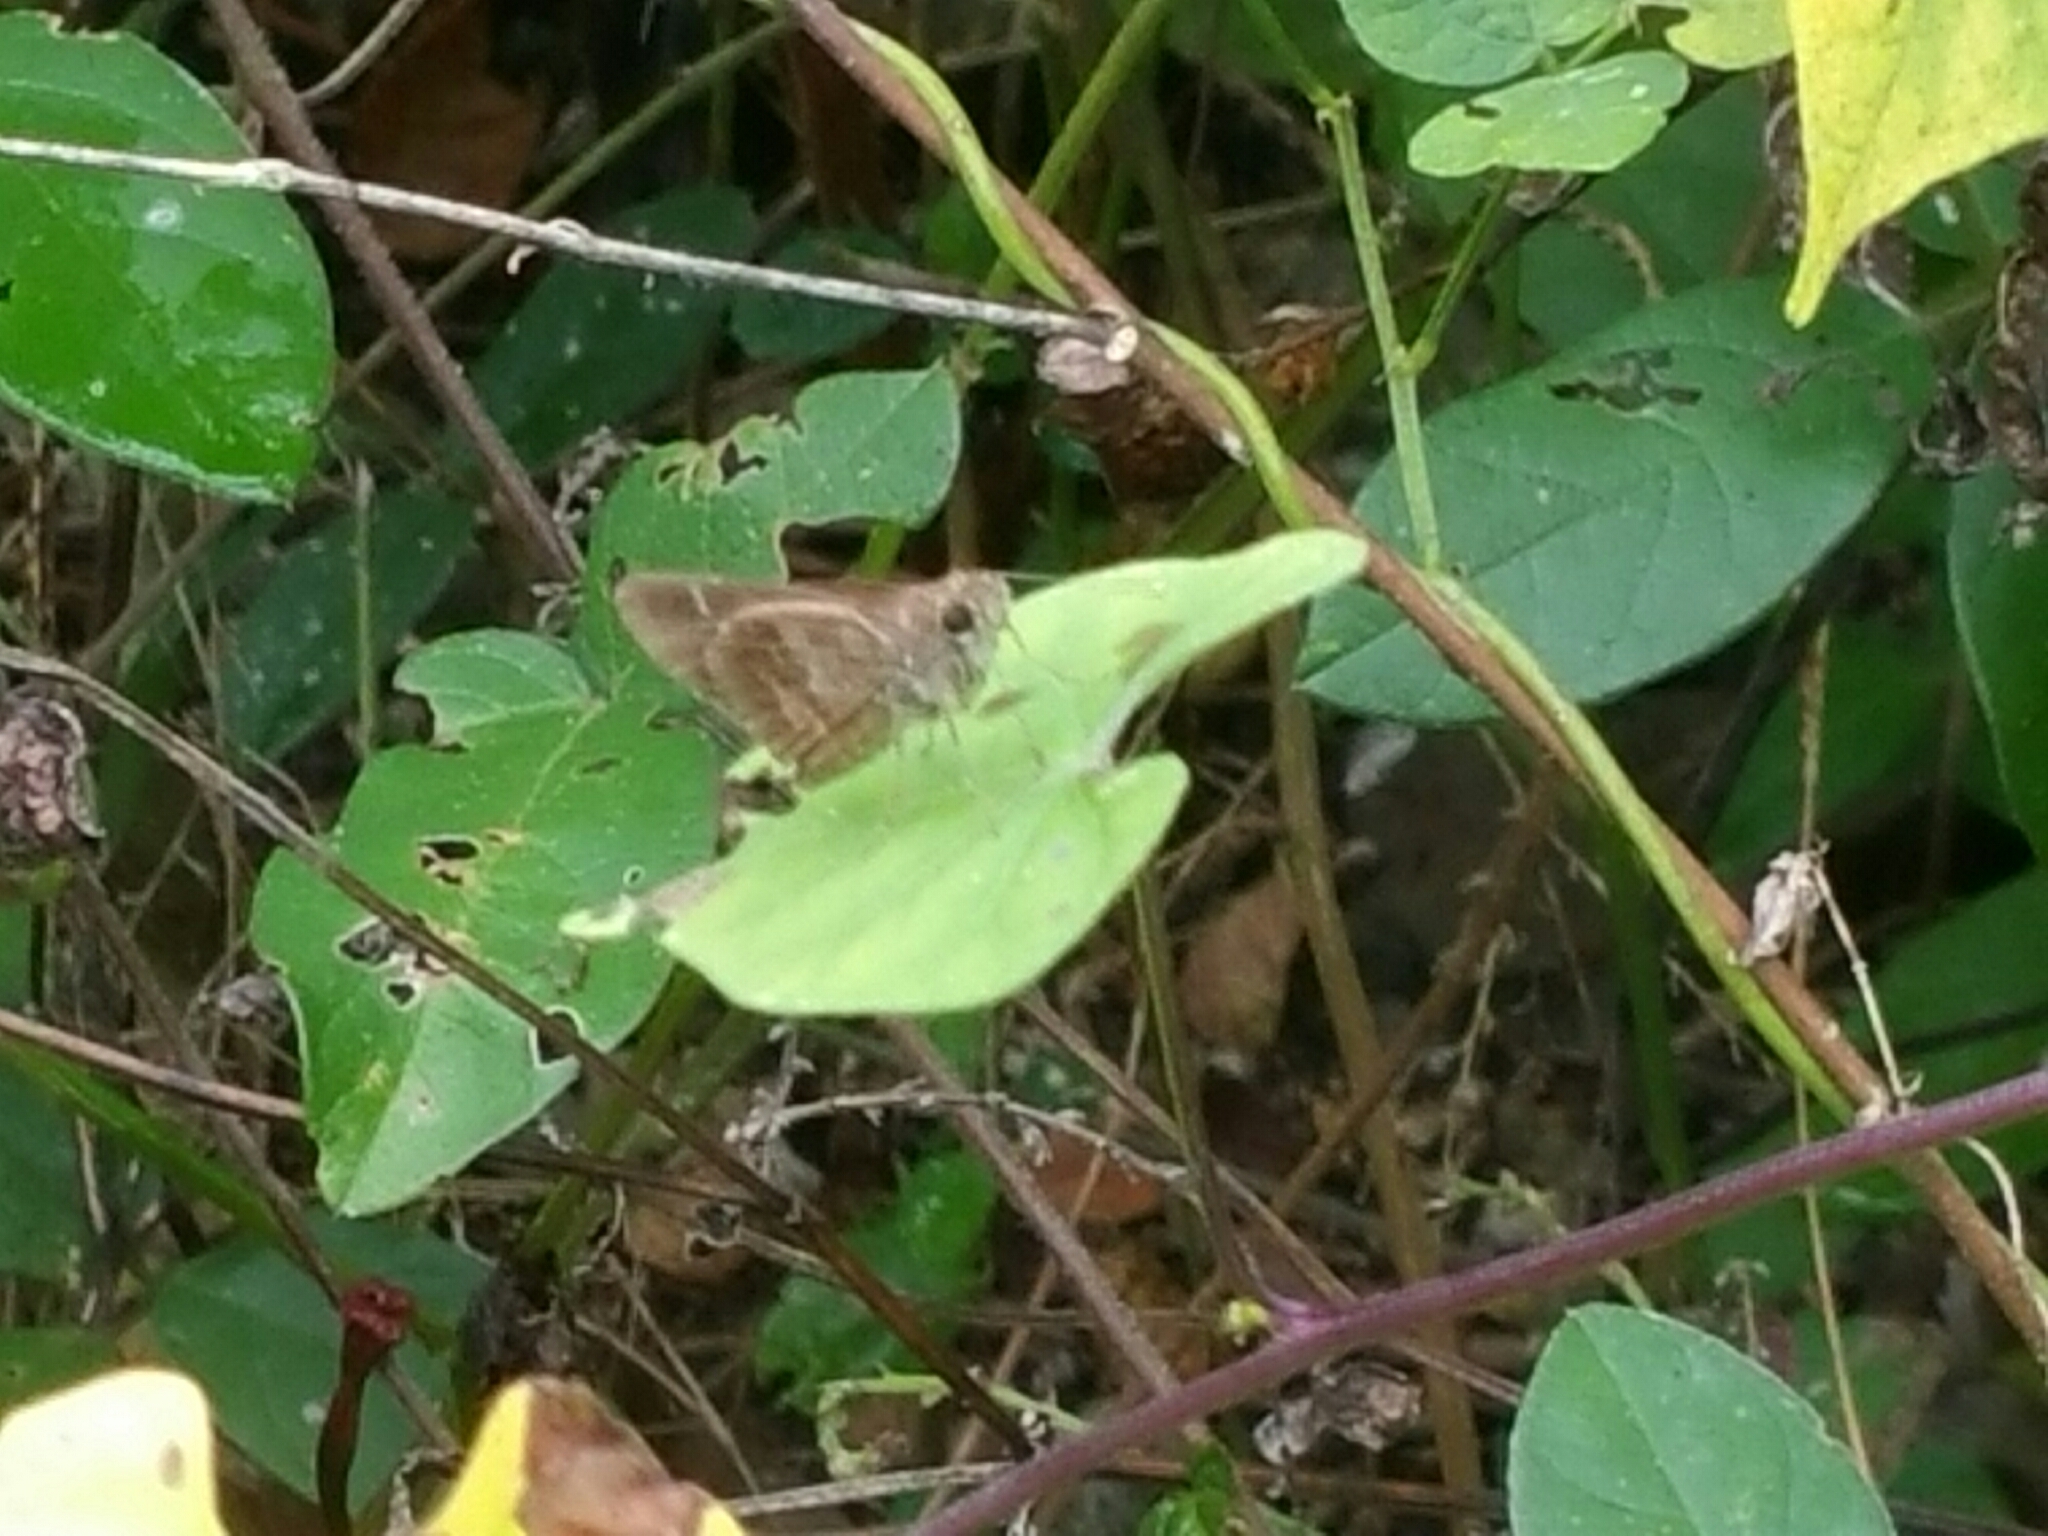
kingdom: Animalia
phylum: Arthropoda
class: Insecta
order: Lepidoptera
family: Hesperiidae
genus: Cymaenes
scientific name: Cymaenes
